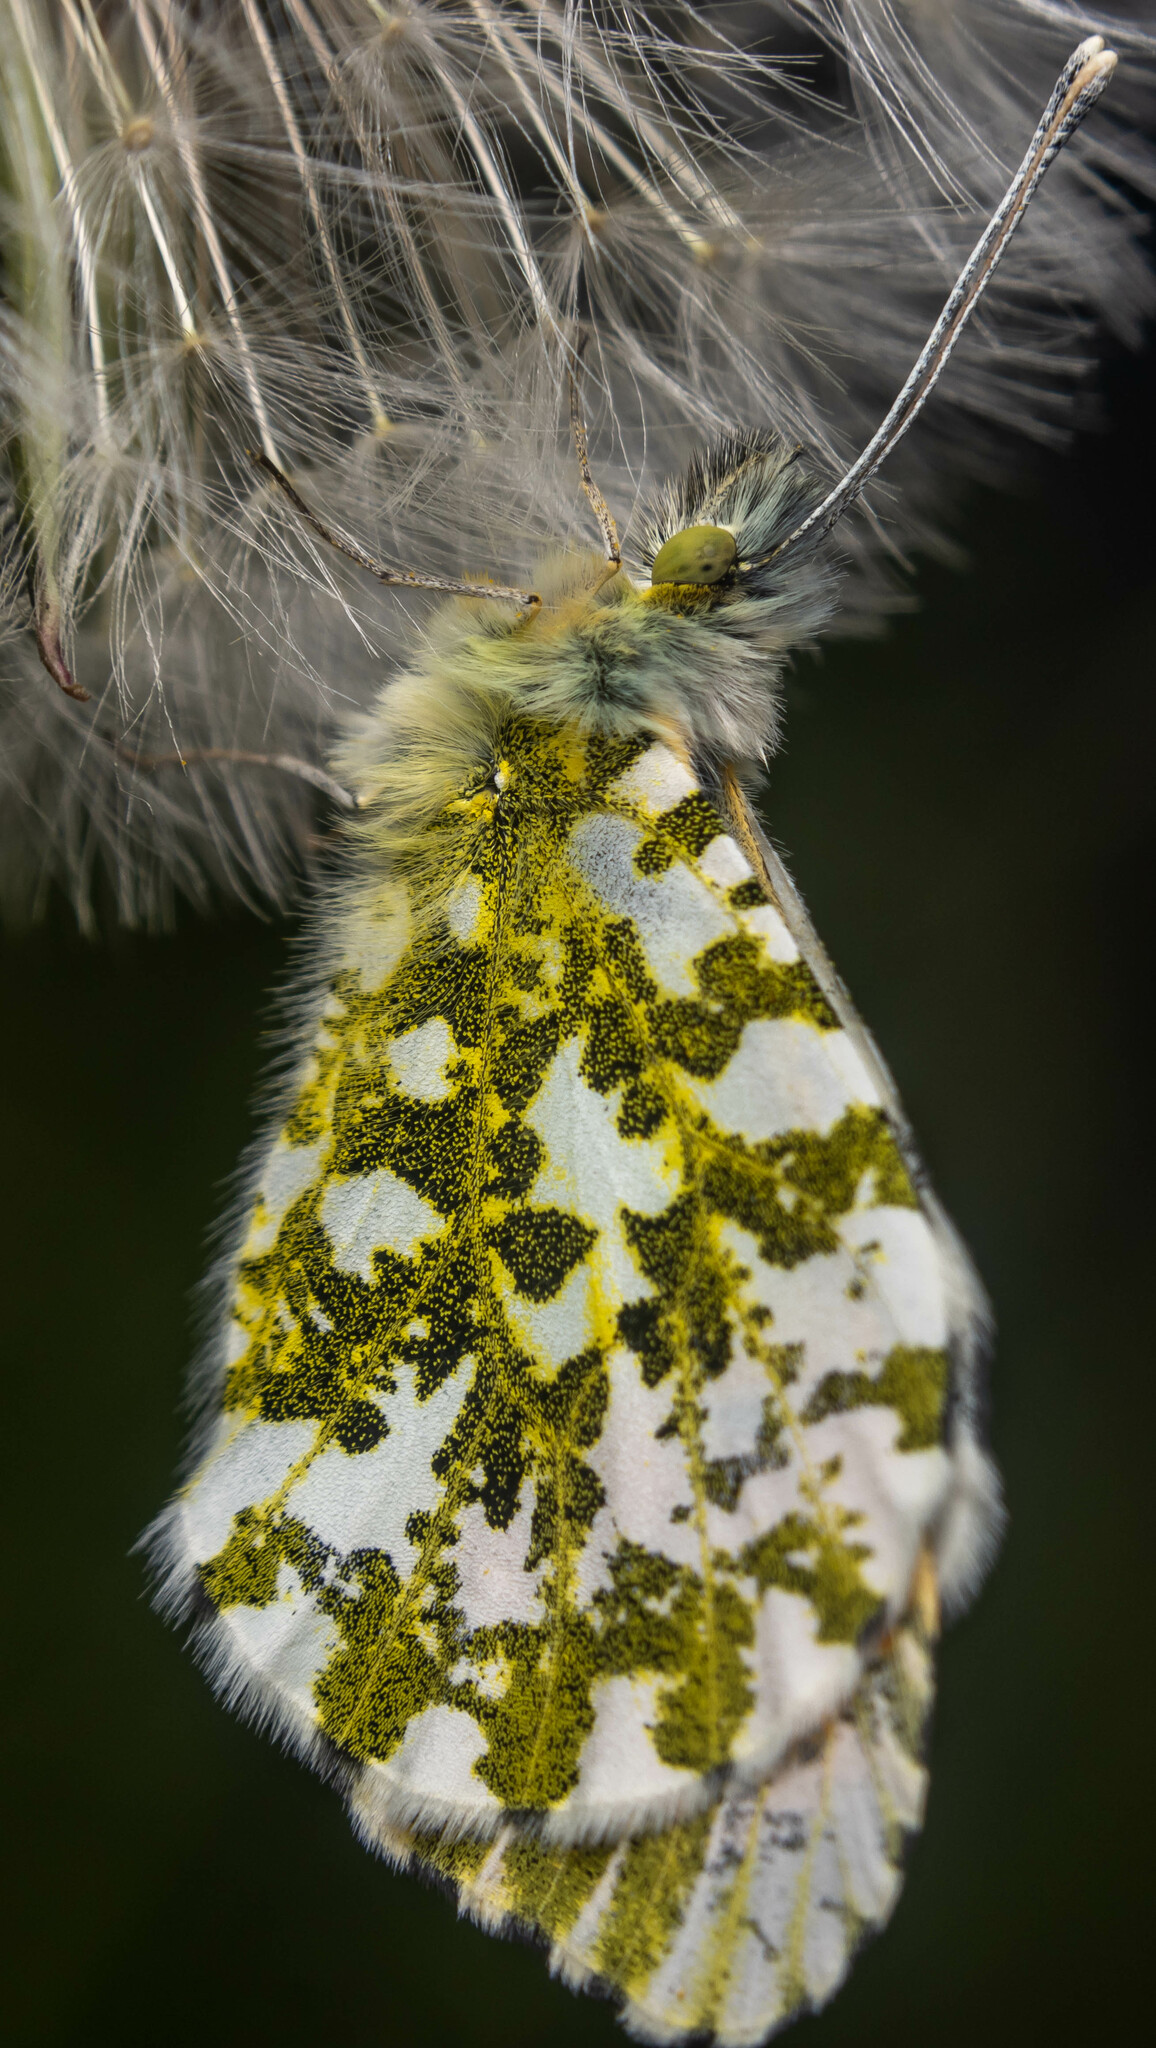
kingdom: Animalia
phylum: Arthropoda
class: Insecta
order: Lepidoptera
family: Pieridae
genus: Anthocharis
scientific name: Anthocharis cardamines
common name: Orange-tip
